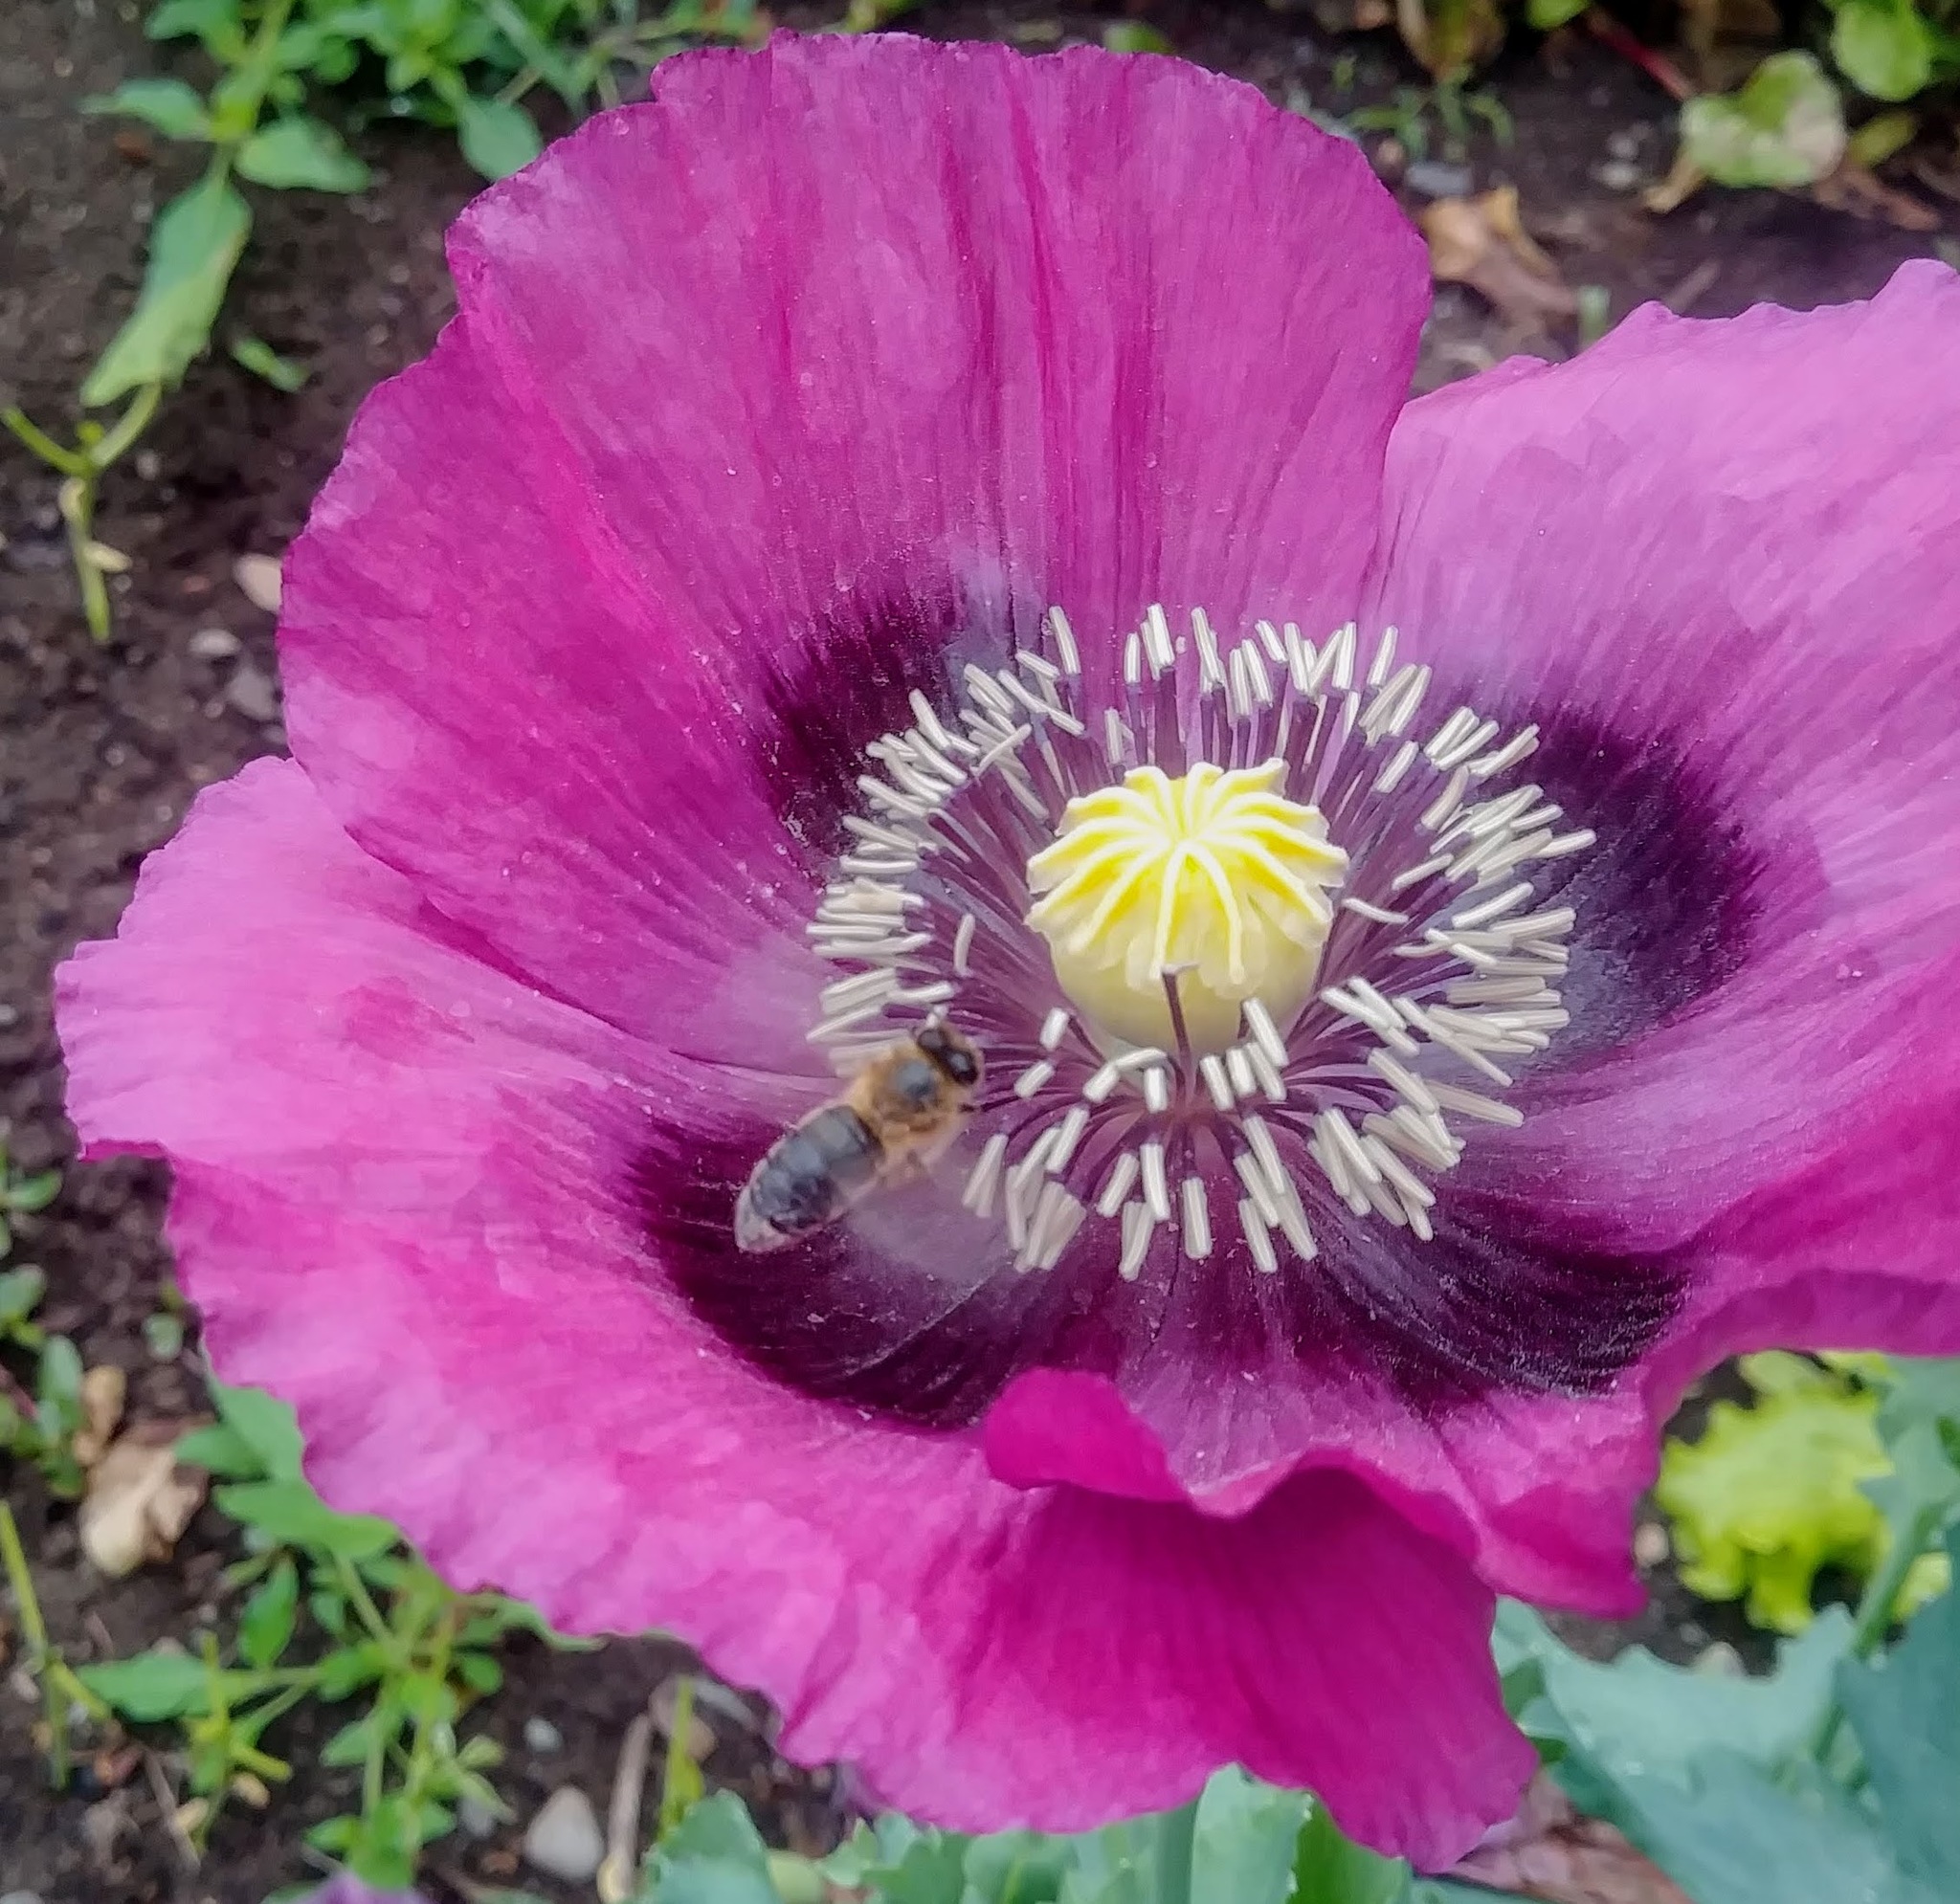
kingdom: Animalia
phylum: Arthropoda
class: Insecta
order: Hymenoptera
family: Apidae
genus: Apis
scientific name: Apis mellifera
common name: Honey bee
